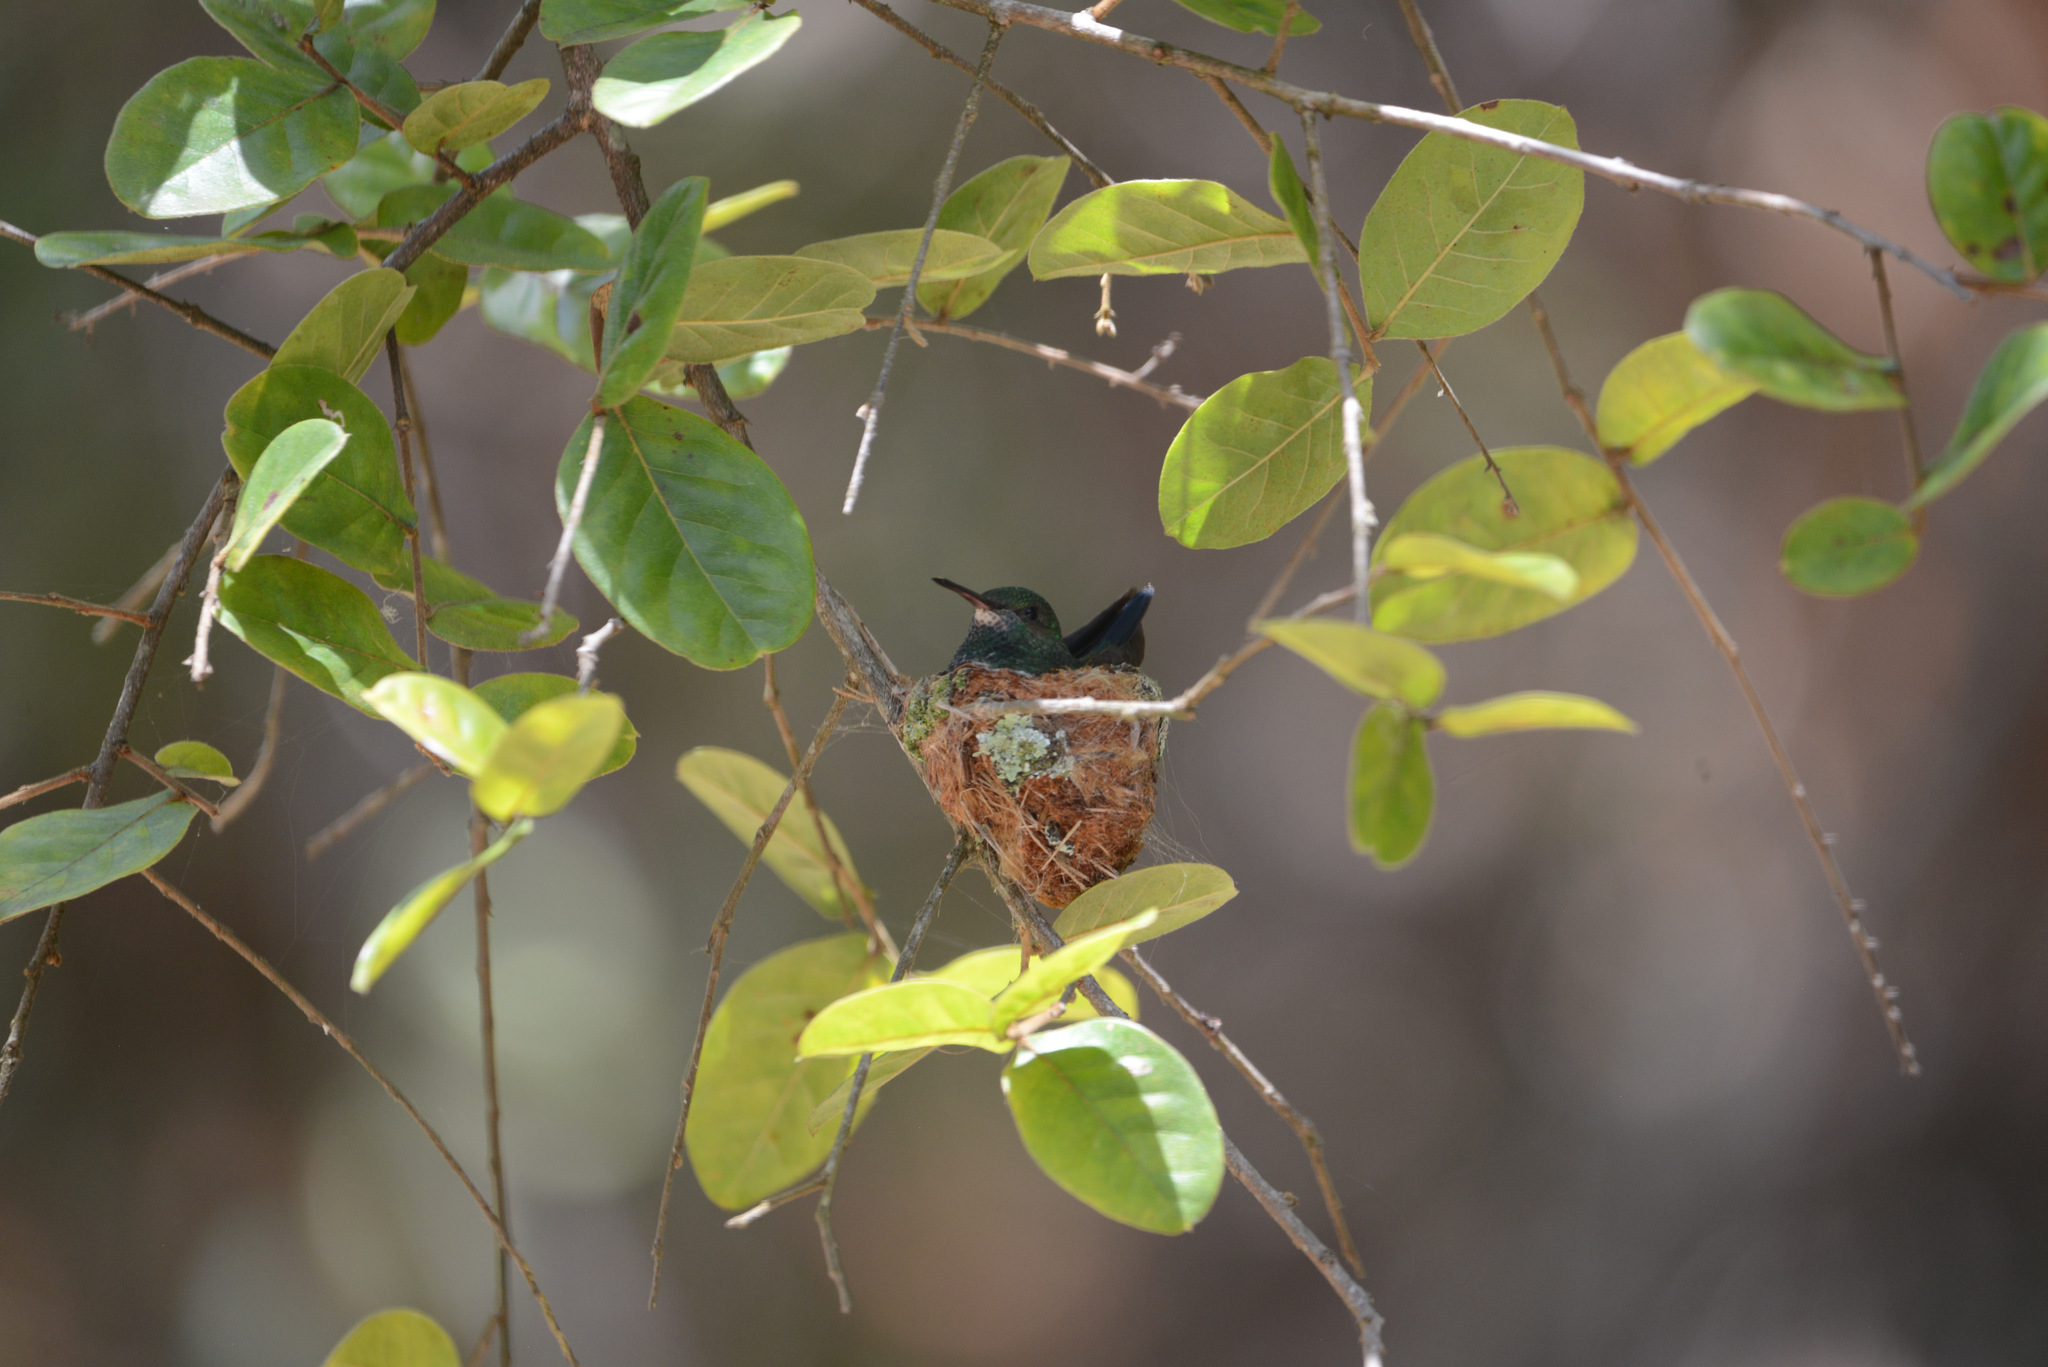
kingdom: Animalia
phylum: Chordata
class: Aves
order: Apodiformes
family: Trochilidae
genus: Chlorestes
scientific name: Chlorestes notata
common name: Blue-chinned sapphire
